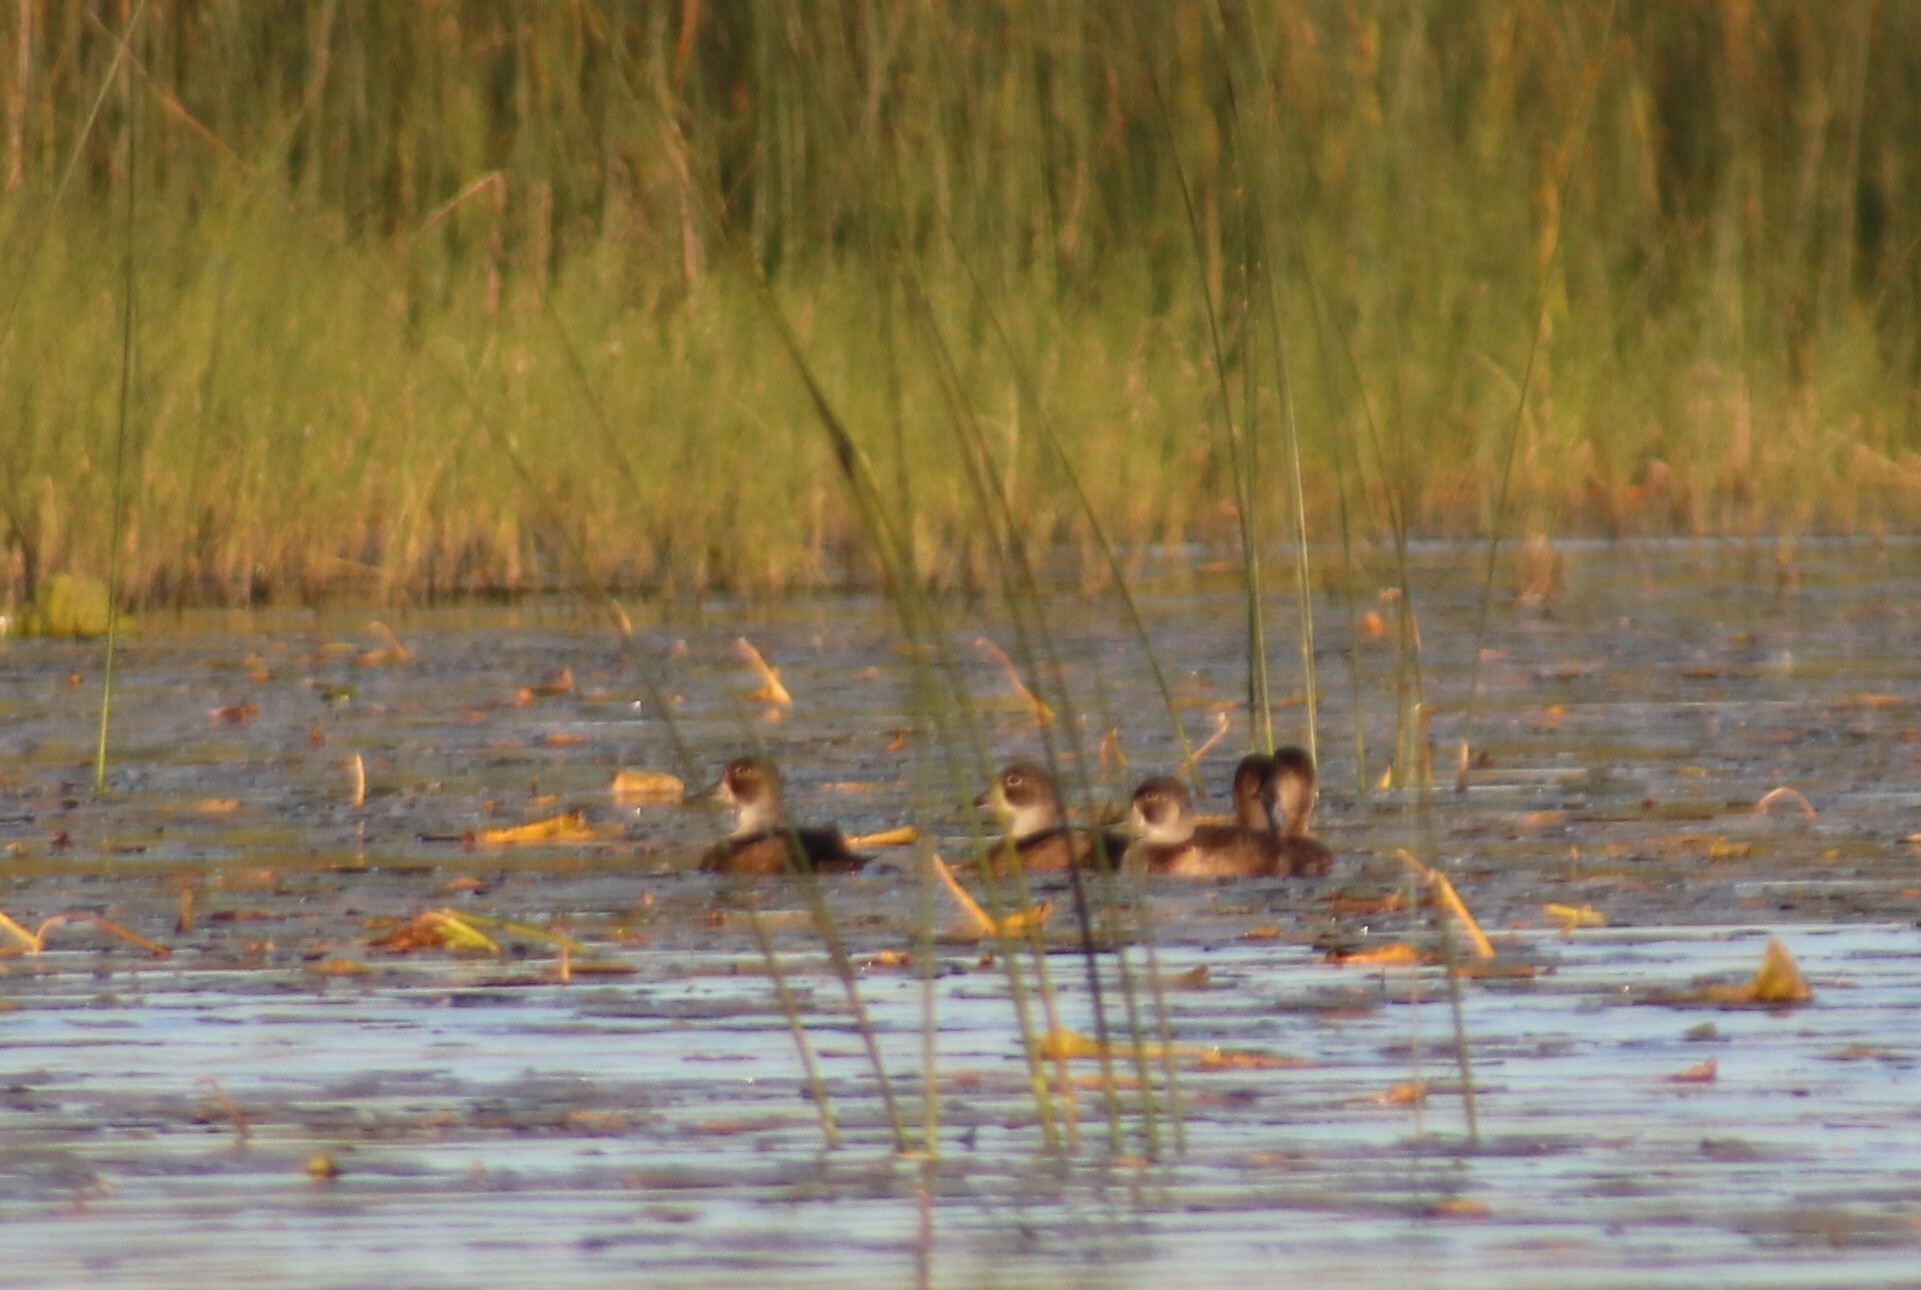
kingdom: Animalia
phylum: Chordata
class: Aves
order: Anseriformes
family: Anatidae
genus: Aythya
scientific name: Aythya collaris
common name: Ring-necked duck
